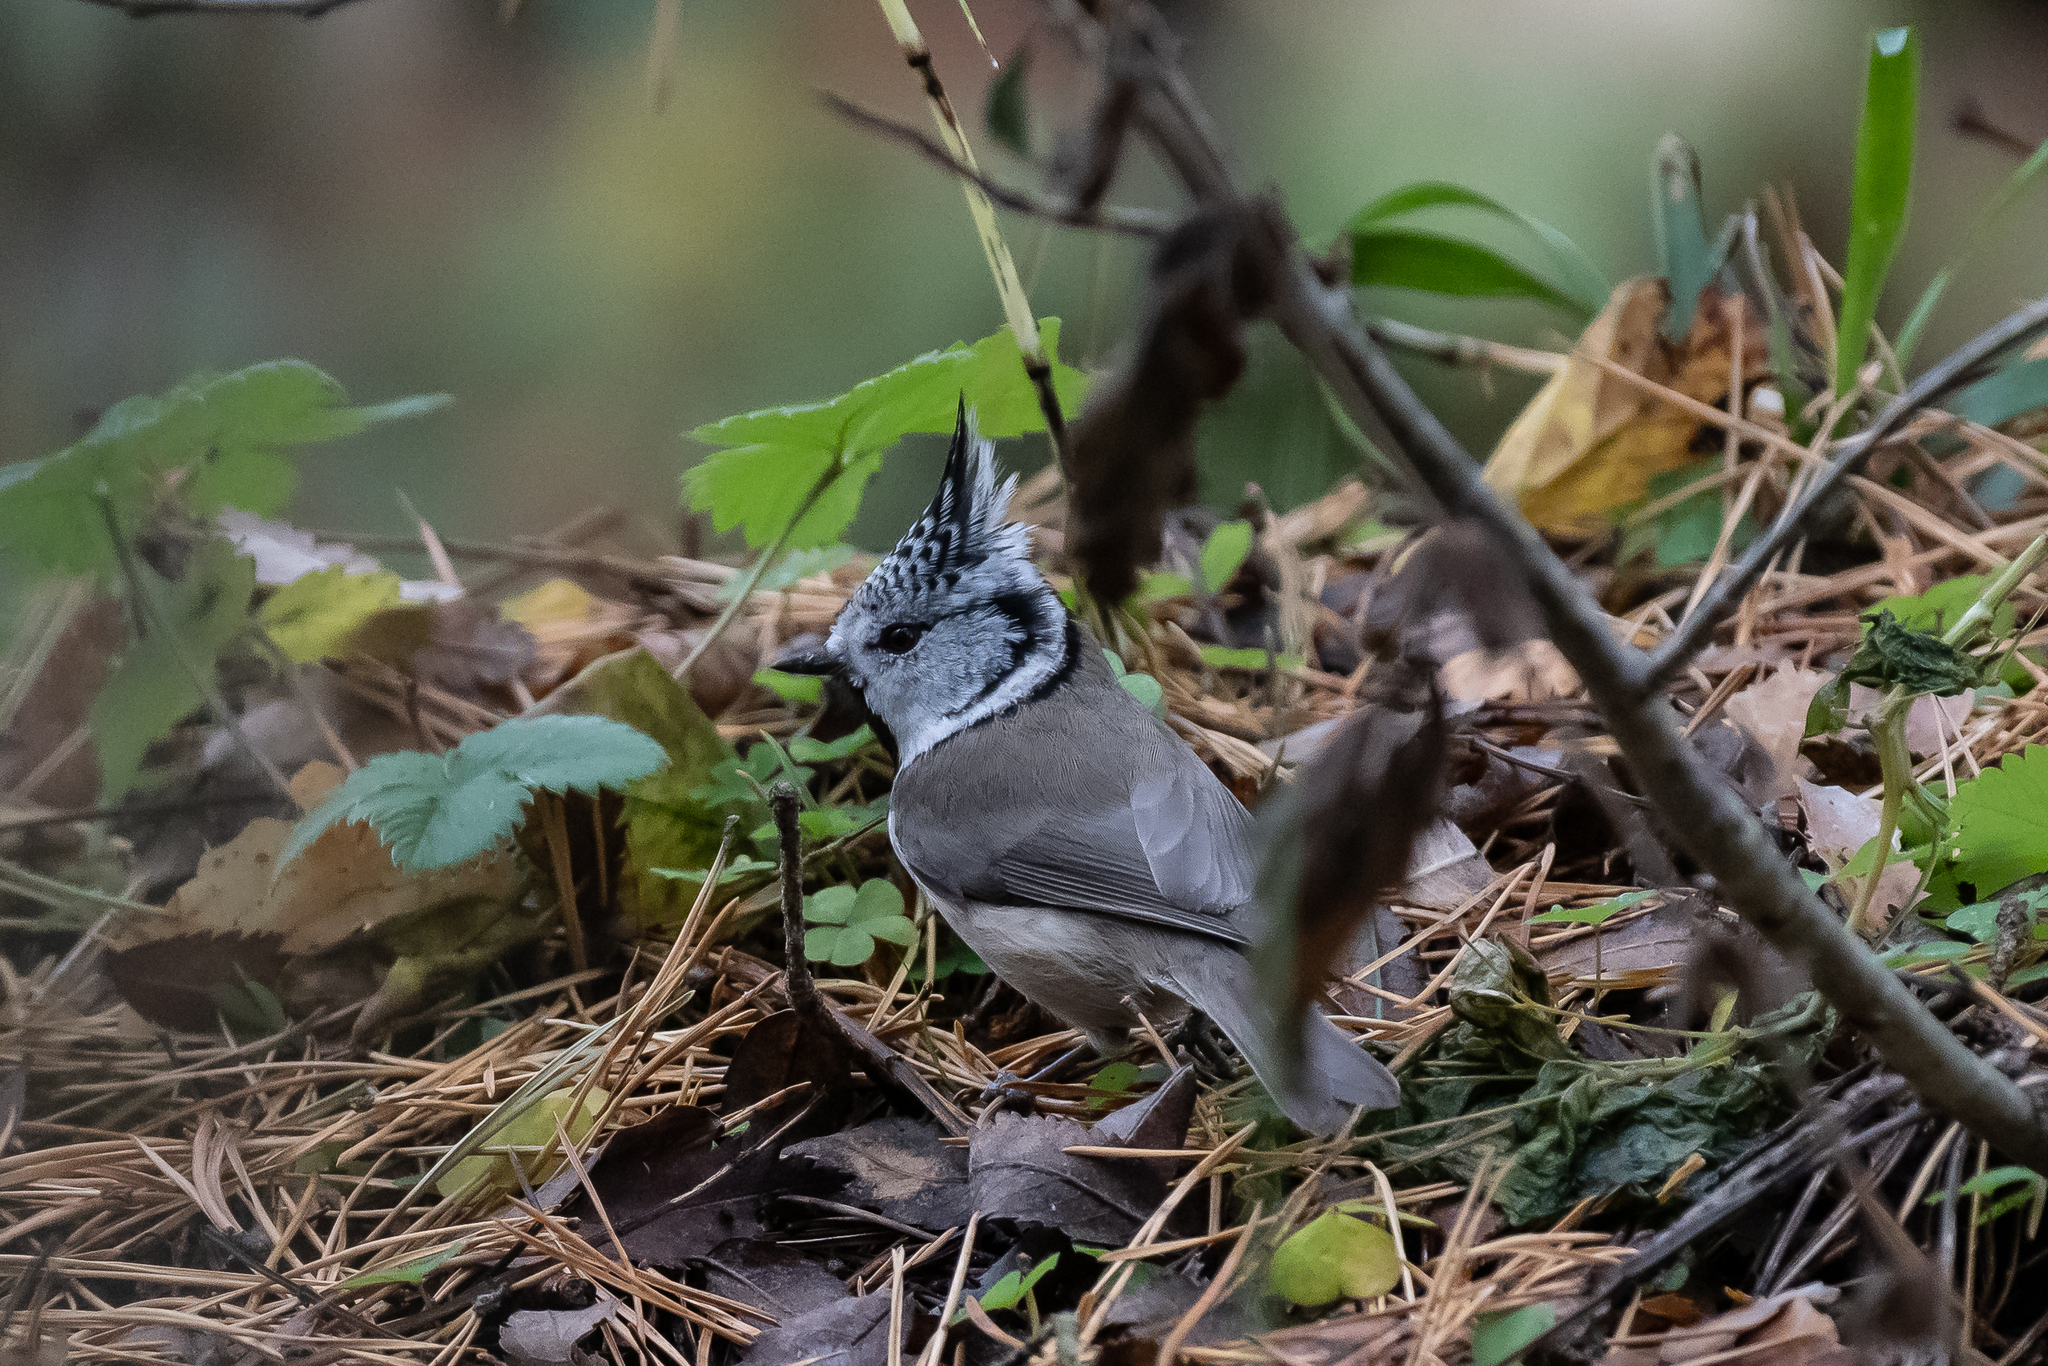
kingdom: Animalia
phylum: Chordata
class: Aves
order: Passeriformes
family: Paridae
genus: Lophophanes
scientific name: Lophophanes cristatus
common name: European crested tit
